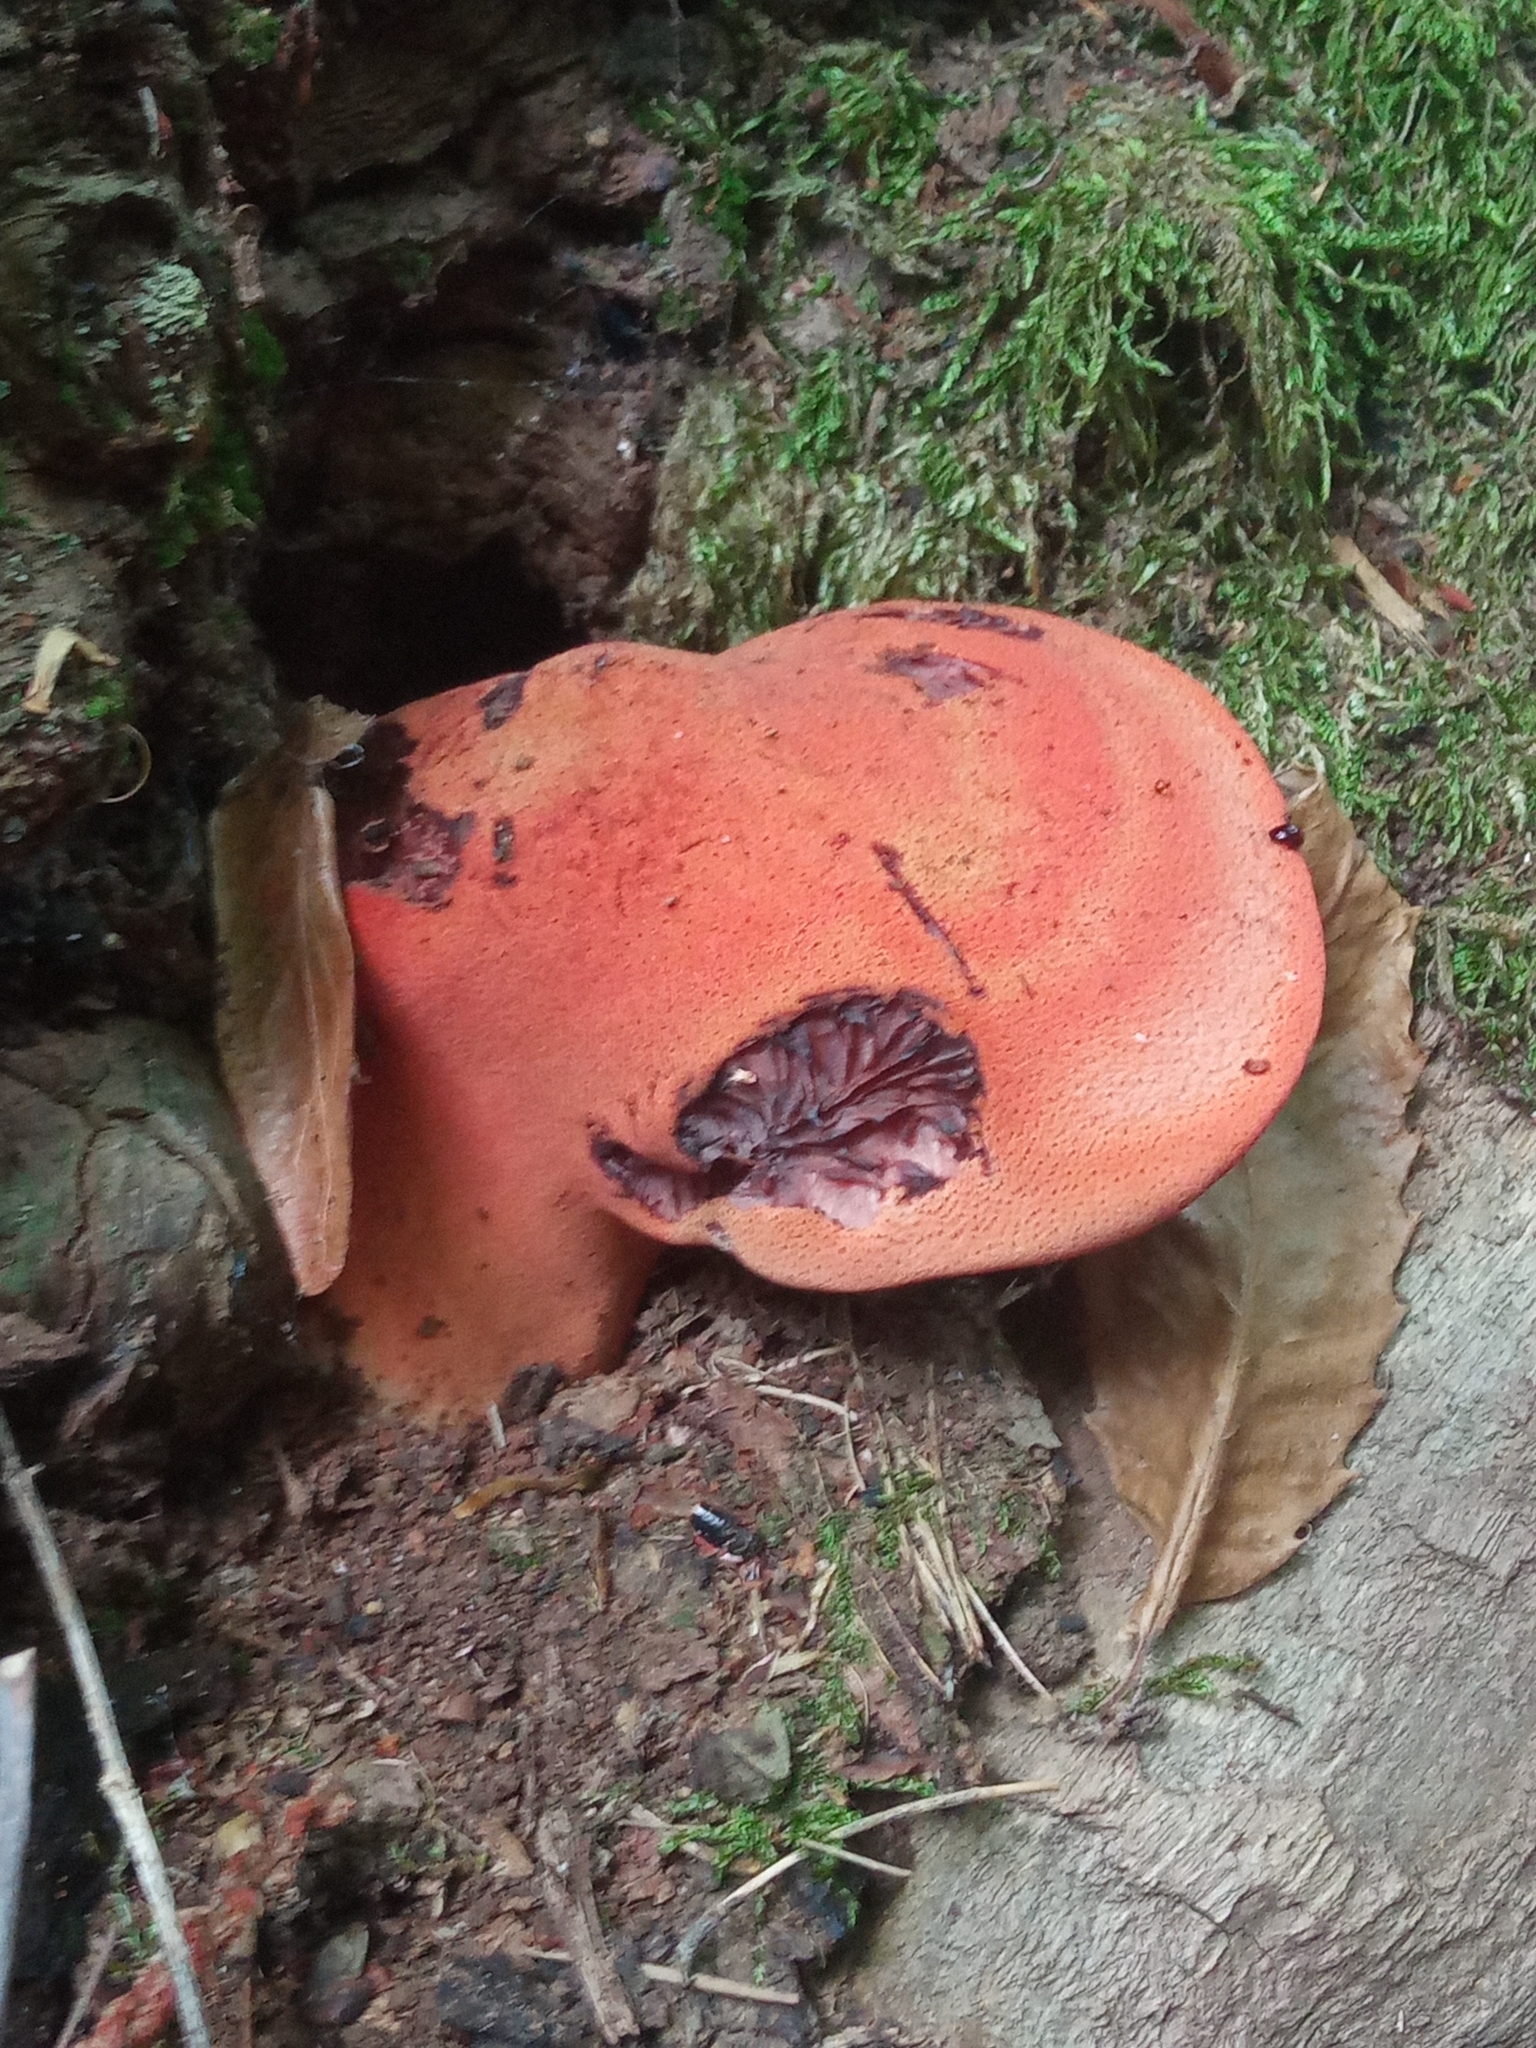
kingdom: Fungi
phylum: Basidiomycota
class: Agaricomycetes
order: Agaricales
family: Fistulinaceae
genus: Fistulina
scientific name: Fistulina hepatica
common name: Beef-steak fungus
